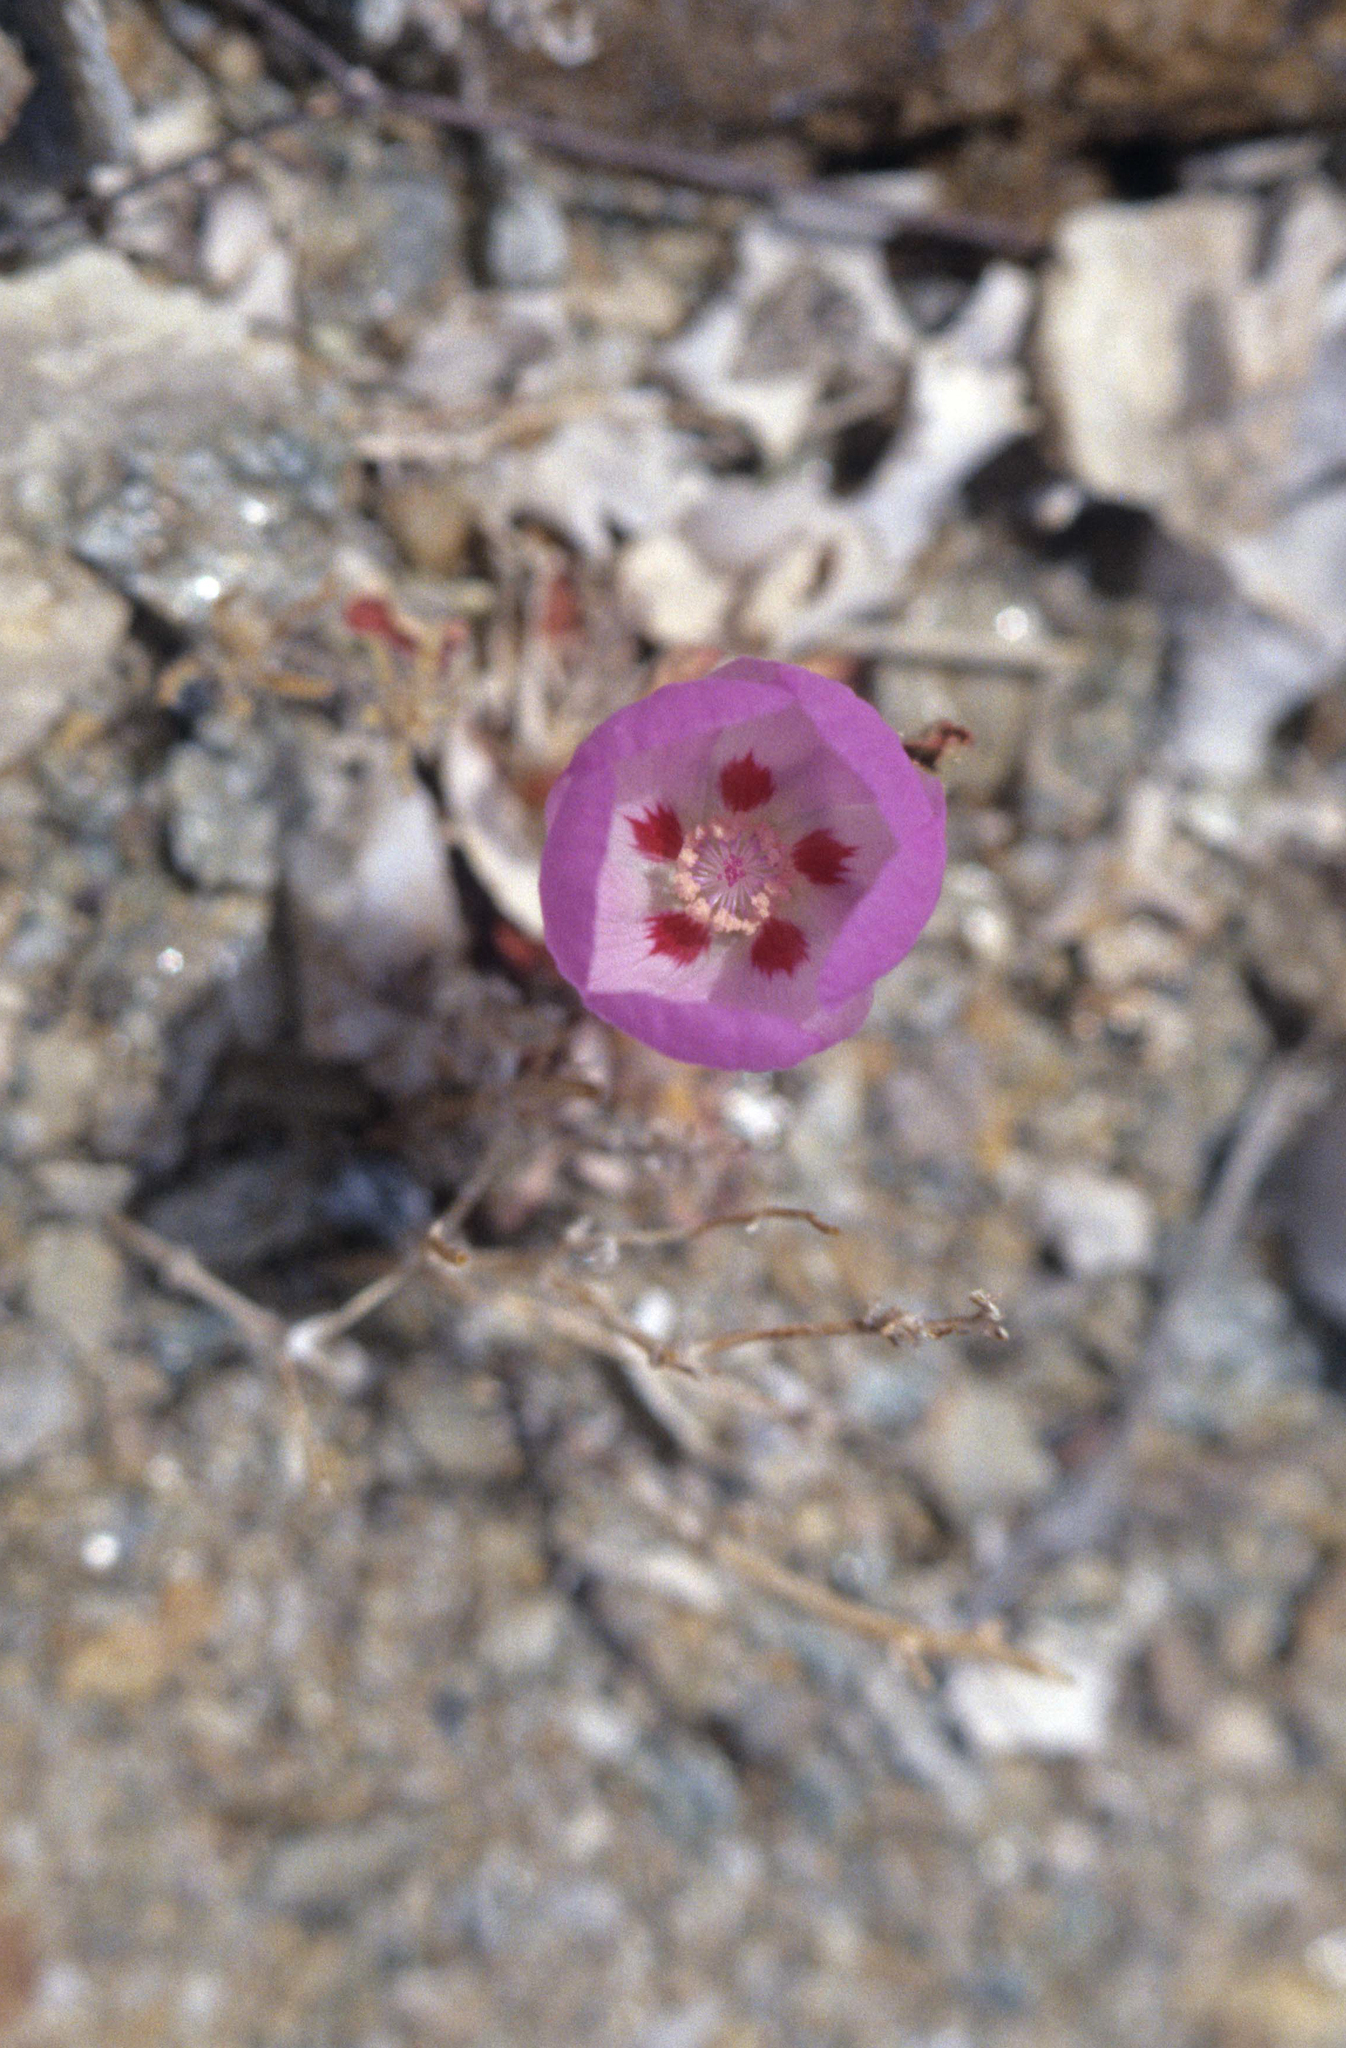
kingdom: Plantae
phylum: Tracheophyta
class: Magnoliopsida
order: Malvales
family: Malvaceae
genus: Eremalche
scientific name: Eremalche rotundifolia
